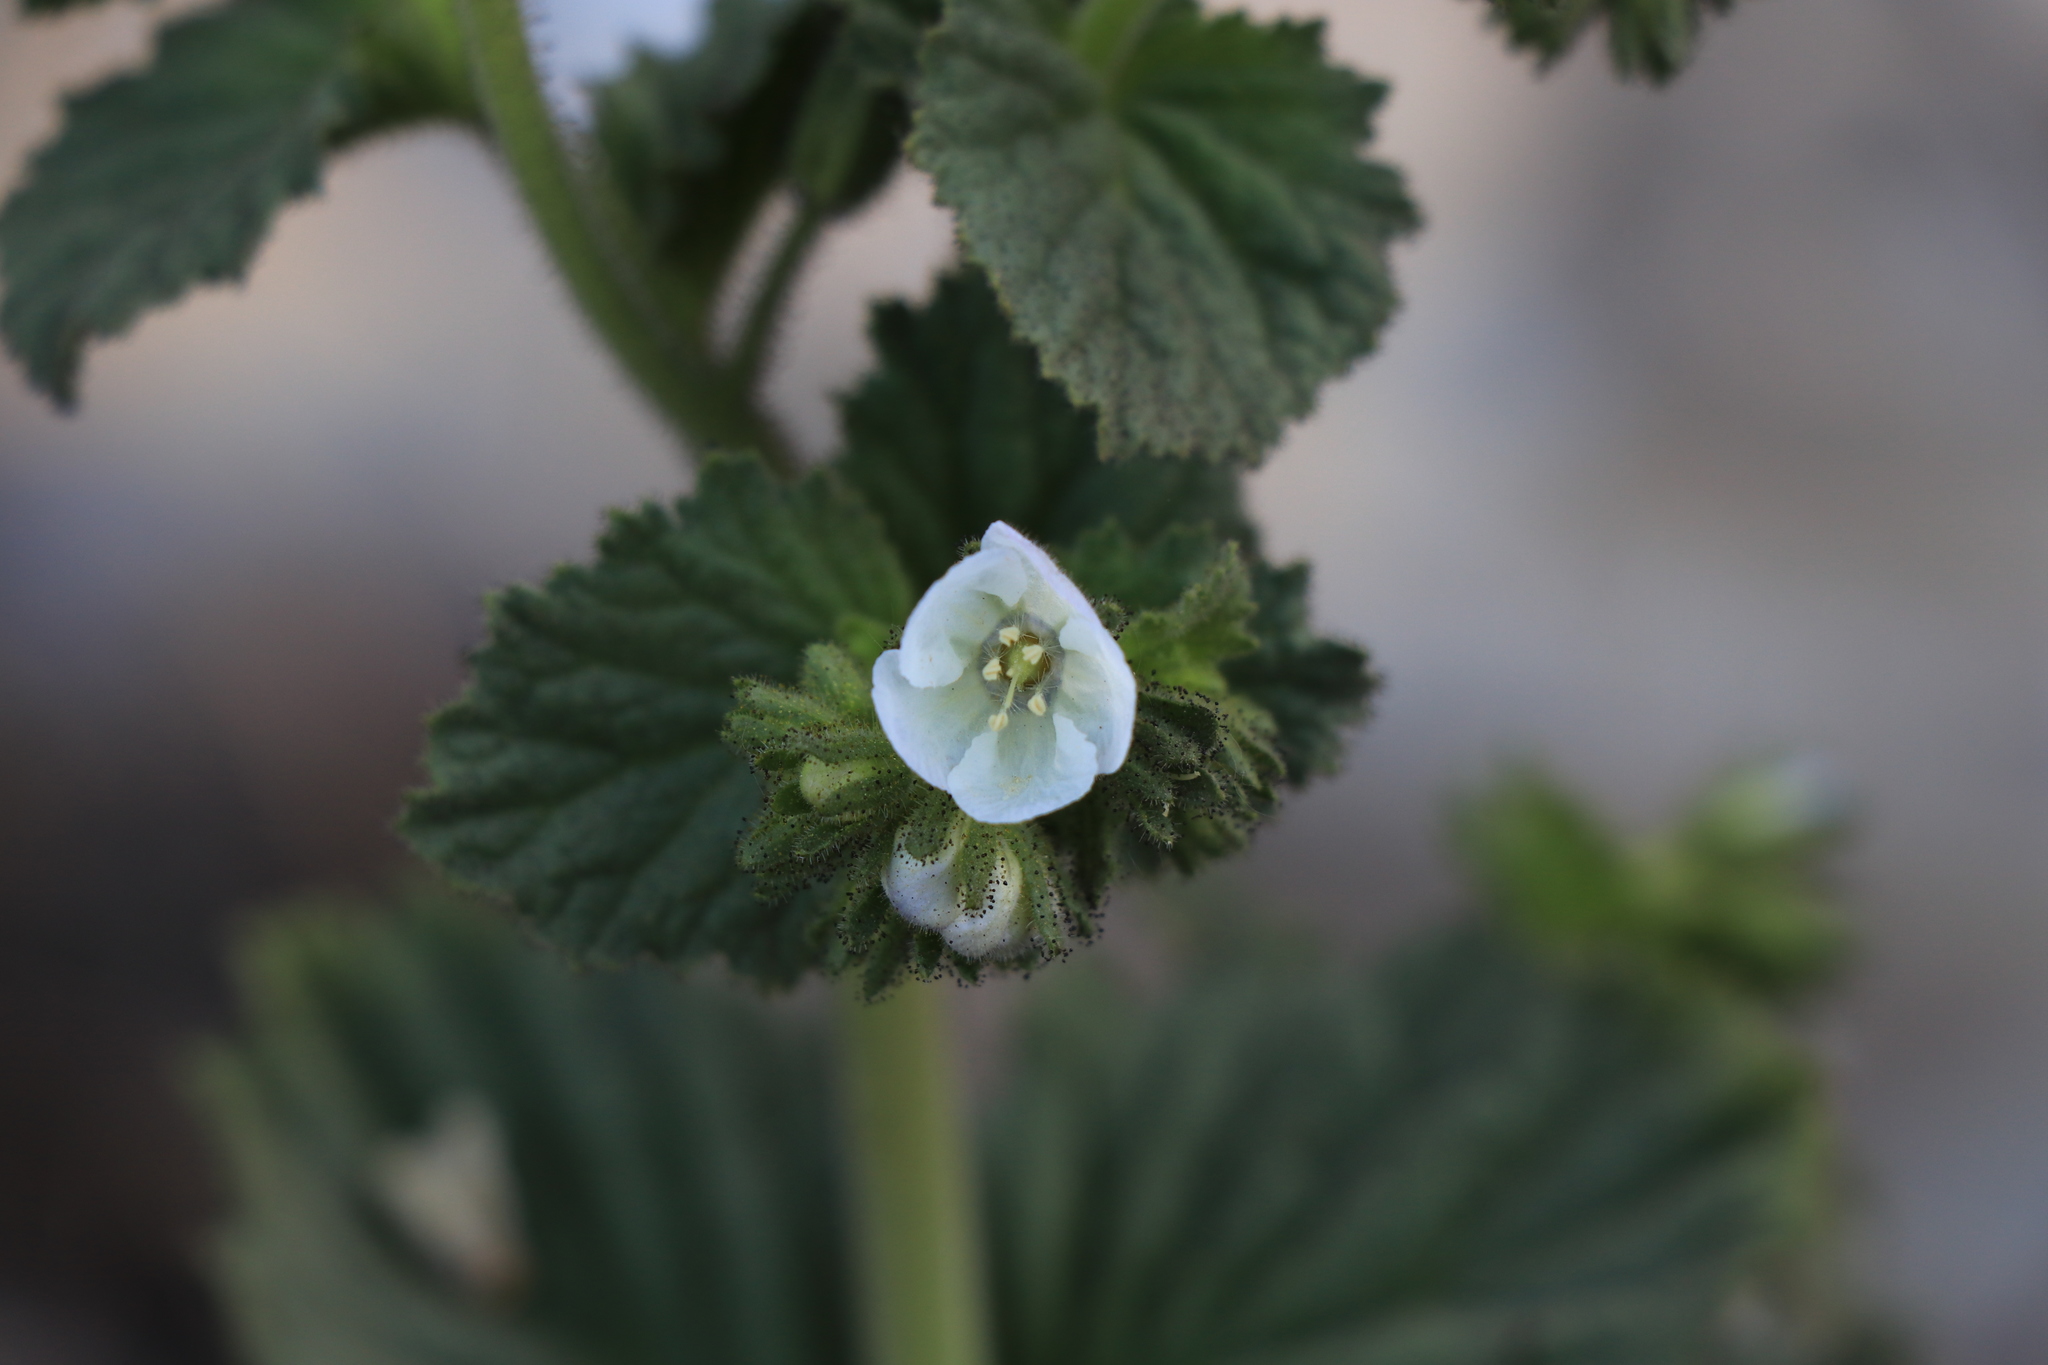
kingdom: Plantae
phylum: Tracheophyta
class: Magnoliopsida
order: Boraginales
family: Hydrophyllaceae
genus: Phacelia
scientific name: Phacelia viscida
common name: Sticky phacelia
